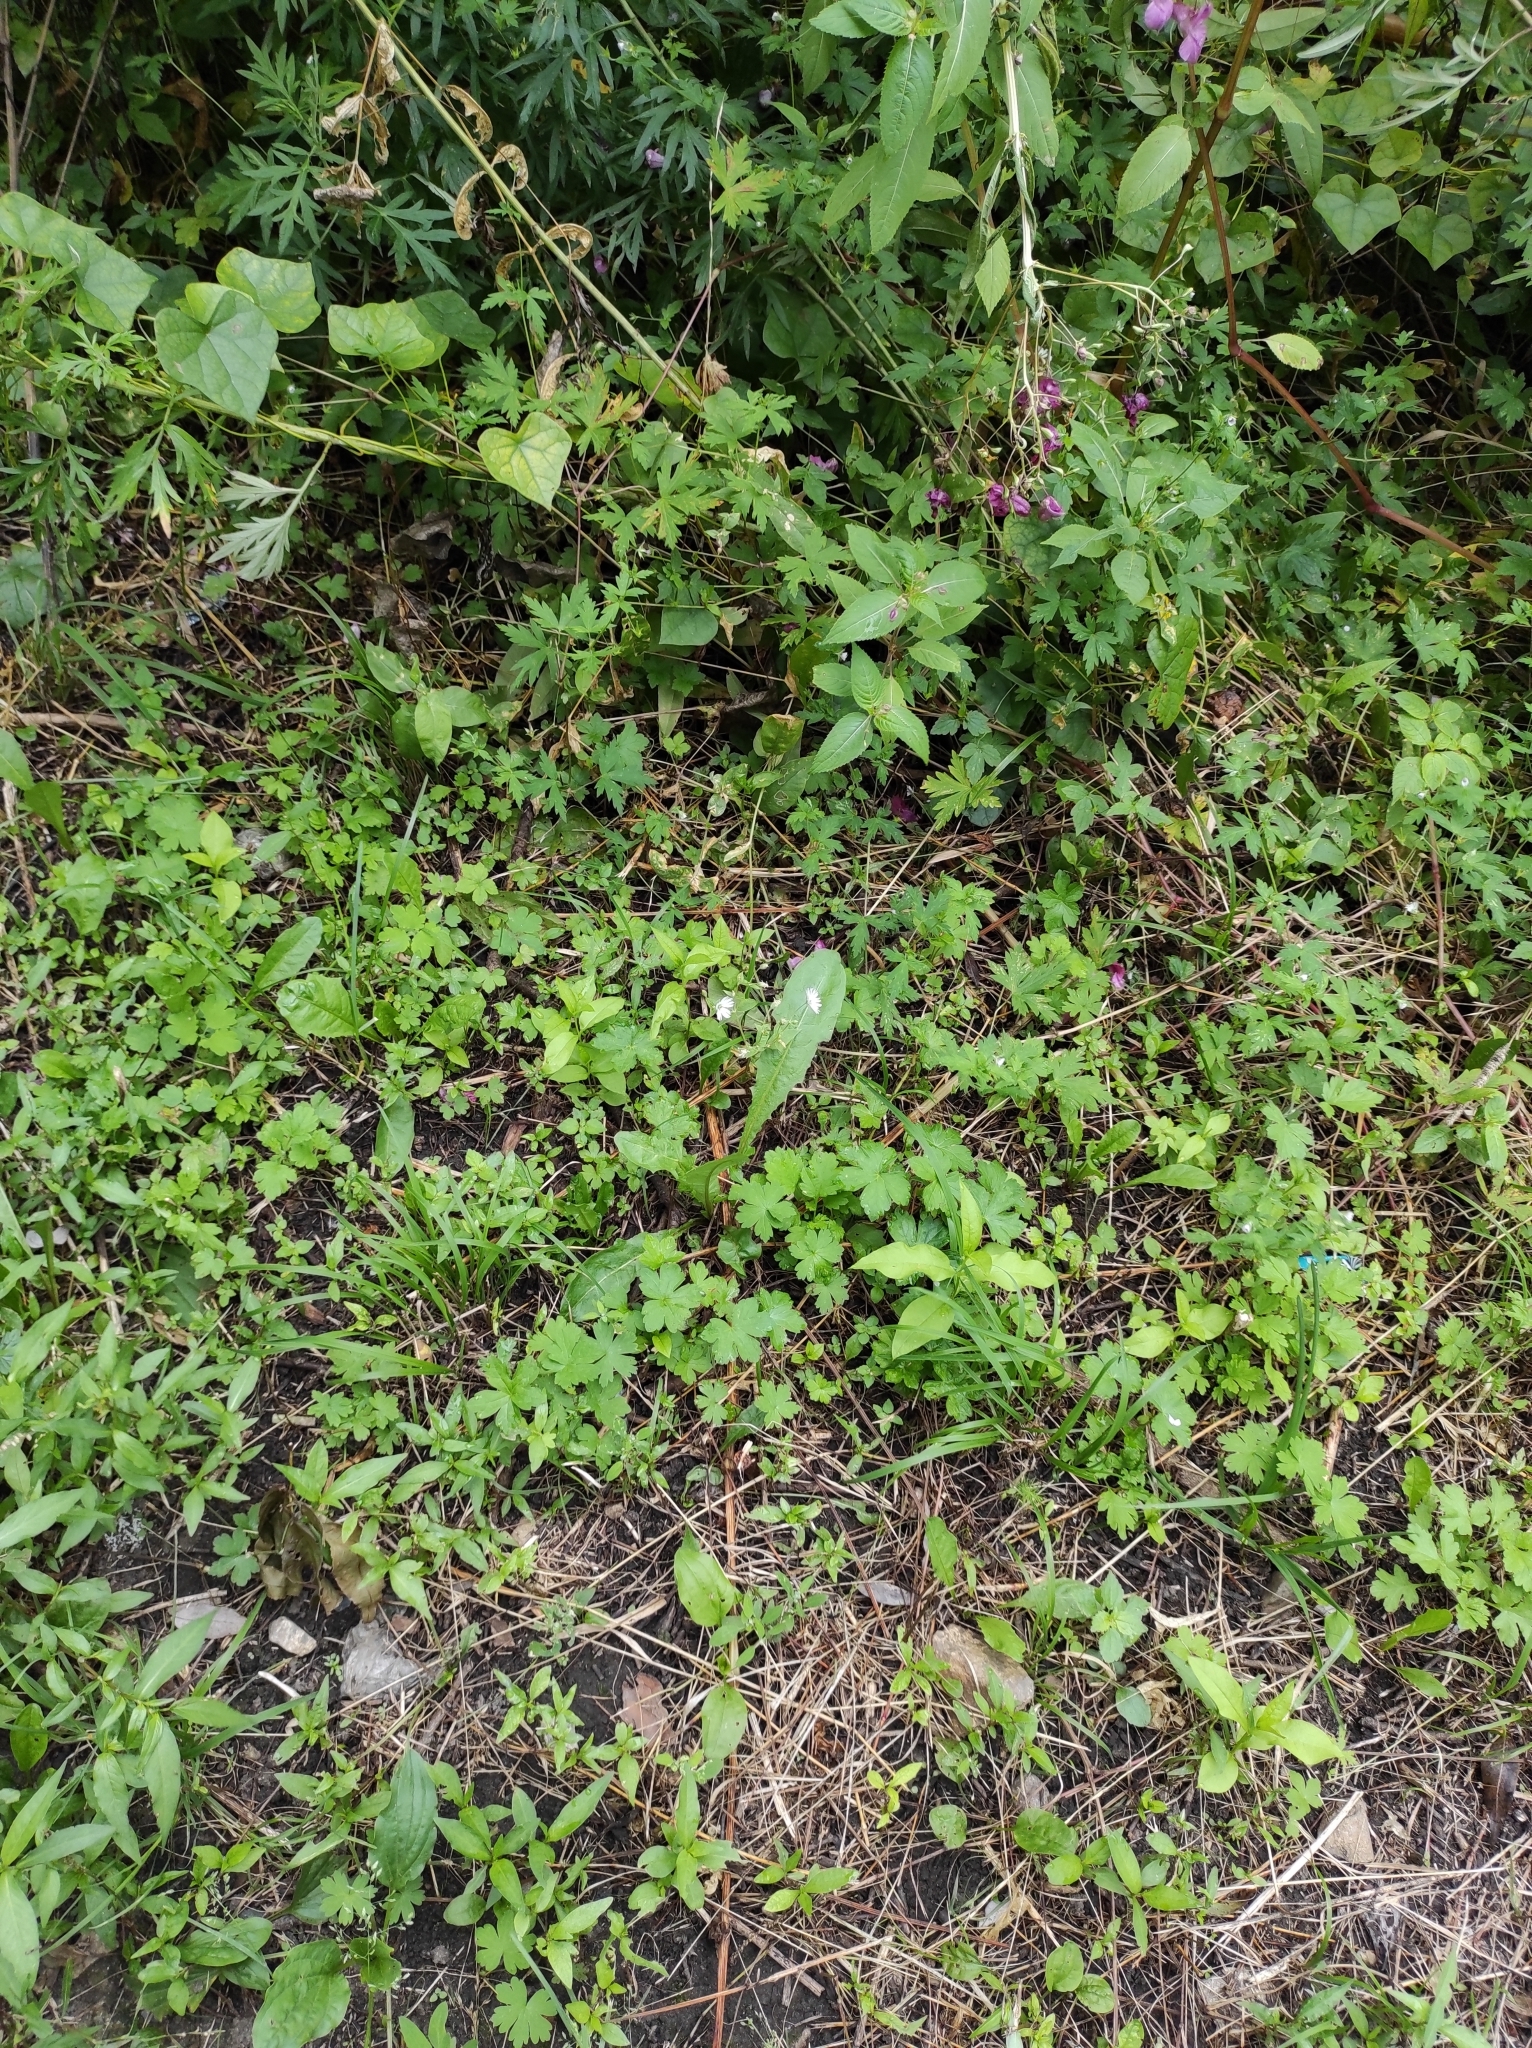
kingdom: Plantae
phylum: Tracheophyta
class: Magnoliopsida
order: Caryophyllales
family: Caryophyllaceae
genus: Stellaria
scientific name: Stellaria radians
